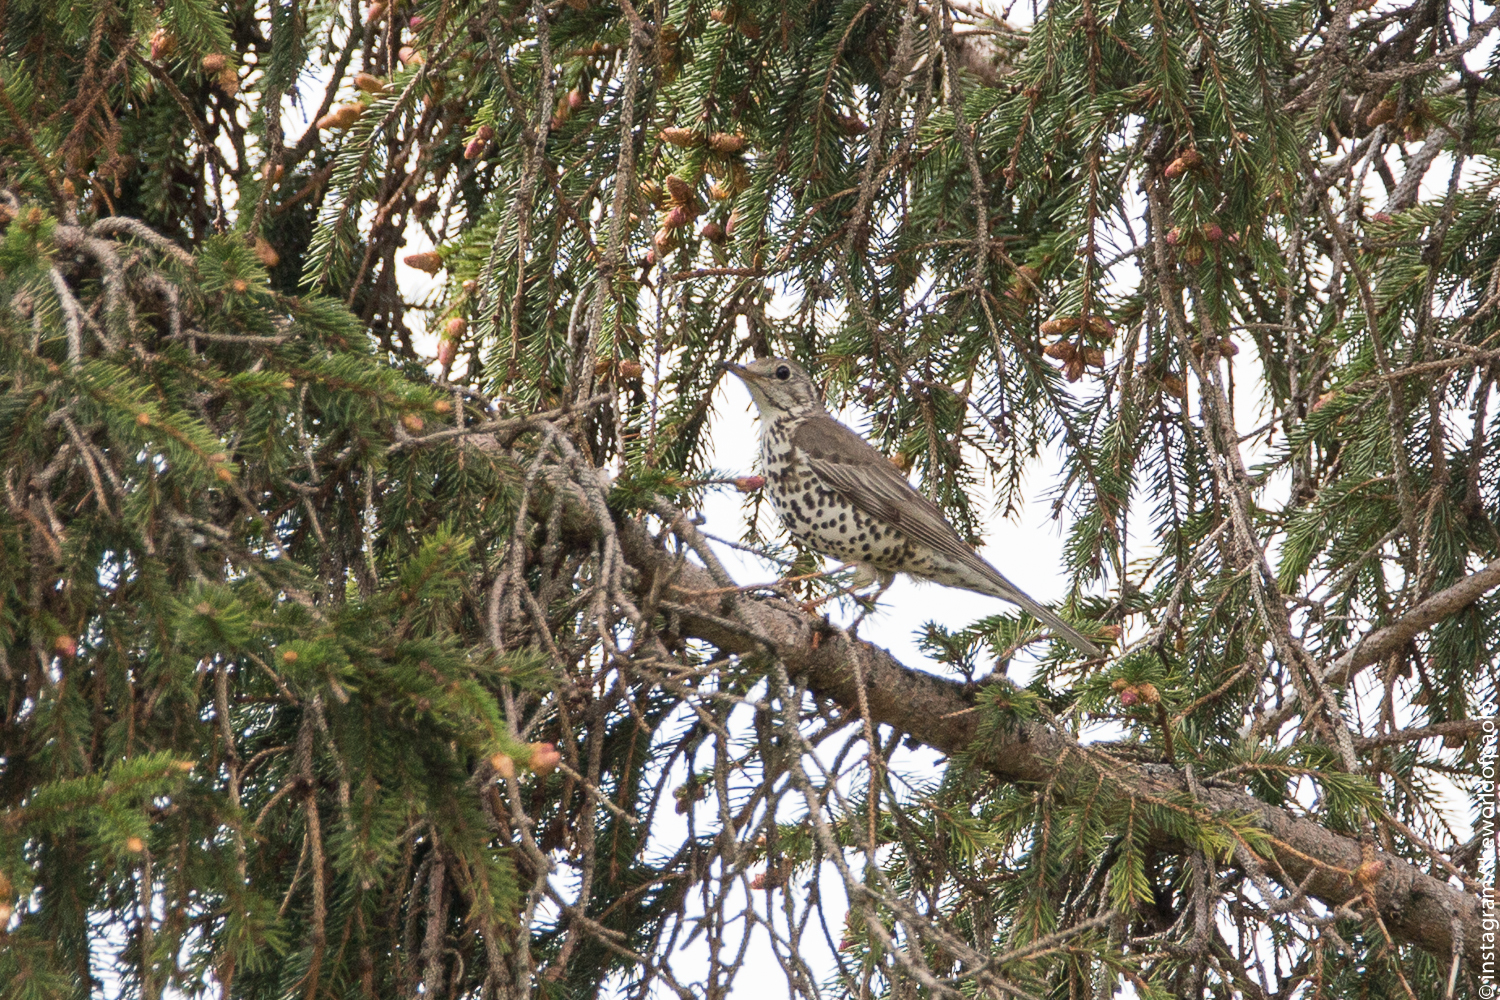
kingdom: Animalia
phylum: Chordata
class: Aves
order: Passeriformes
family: Turdidae
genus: Turdus
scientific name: Turdus viscivorus
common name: Mistle thrush
